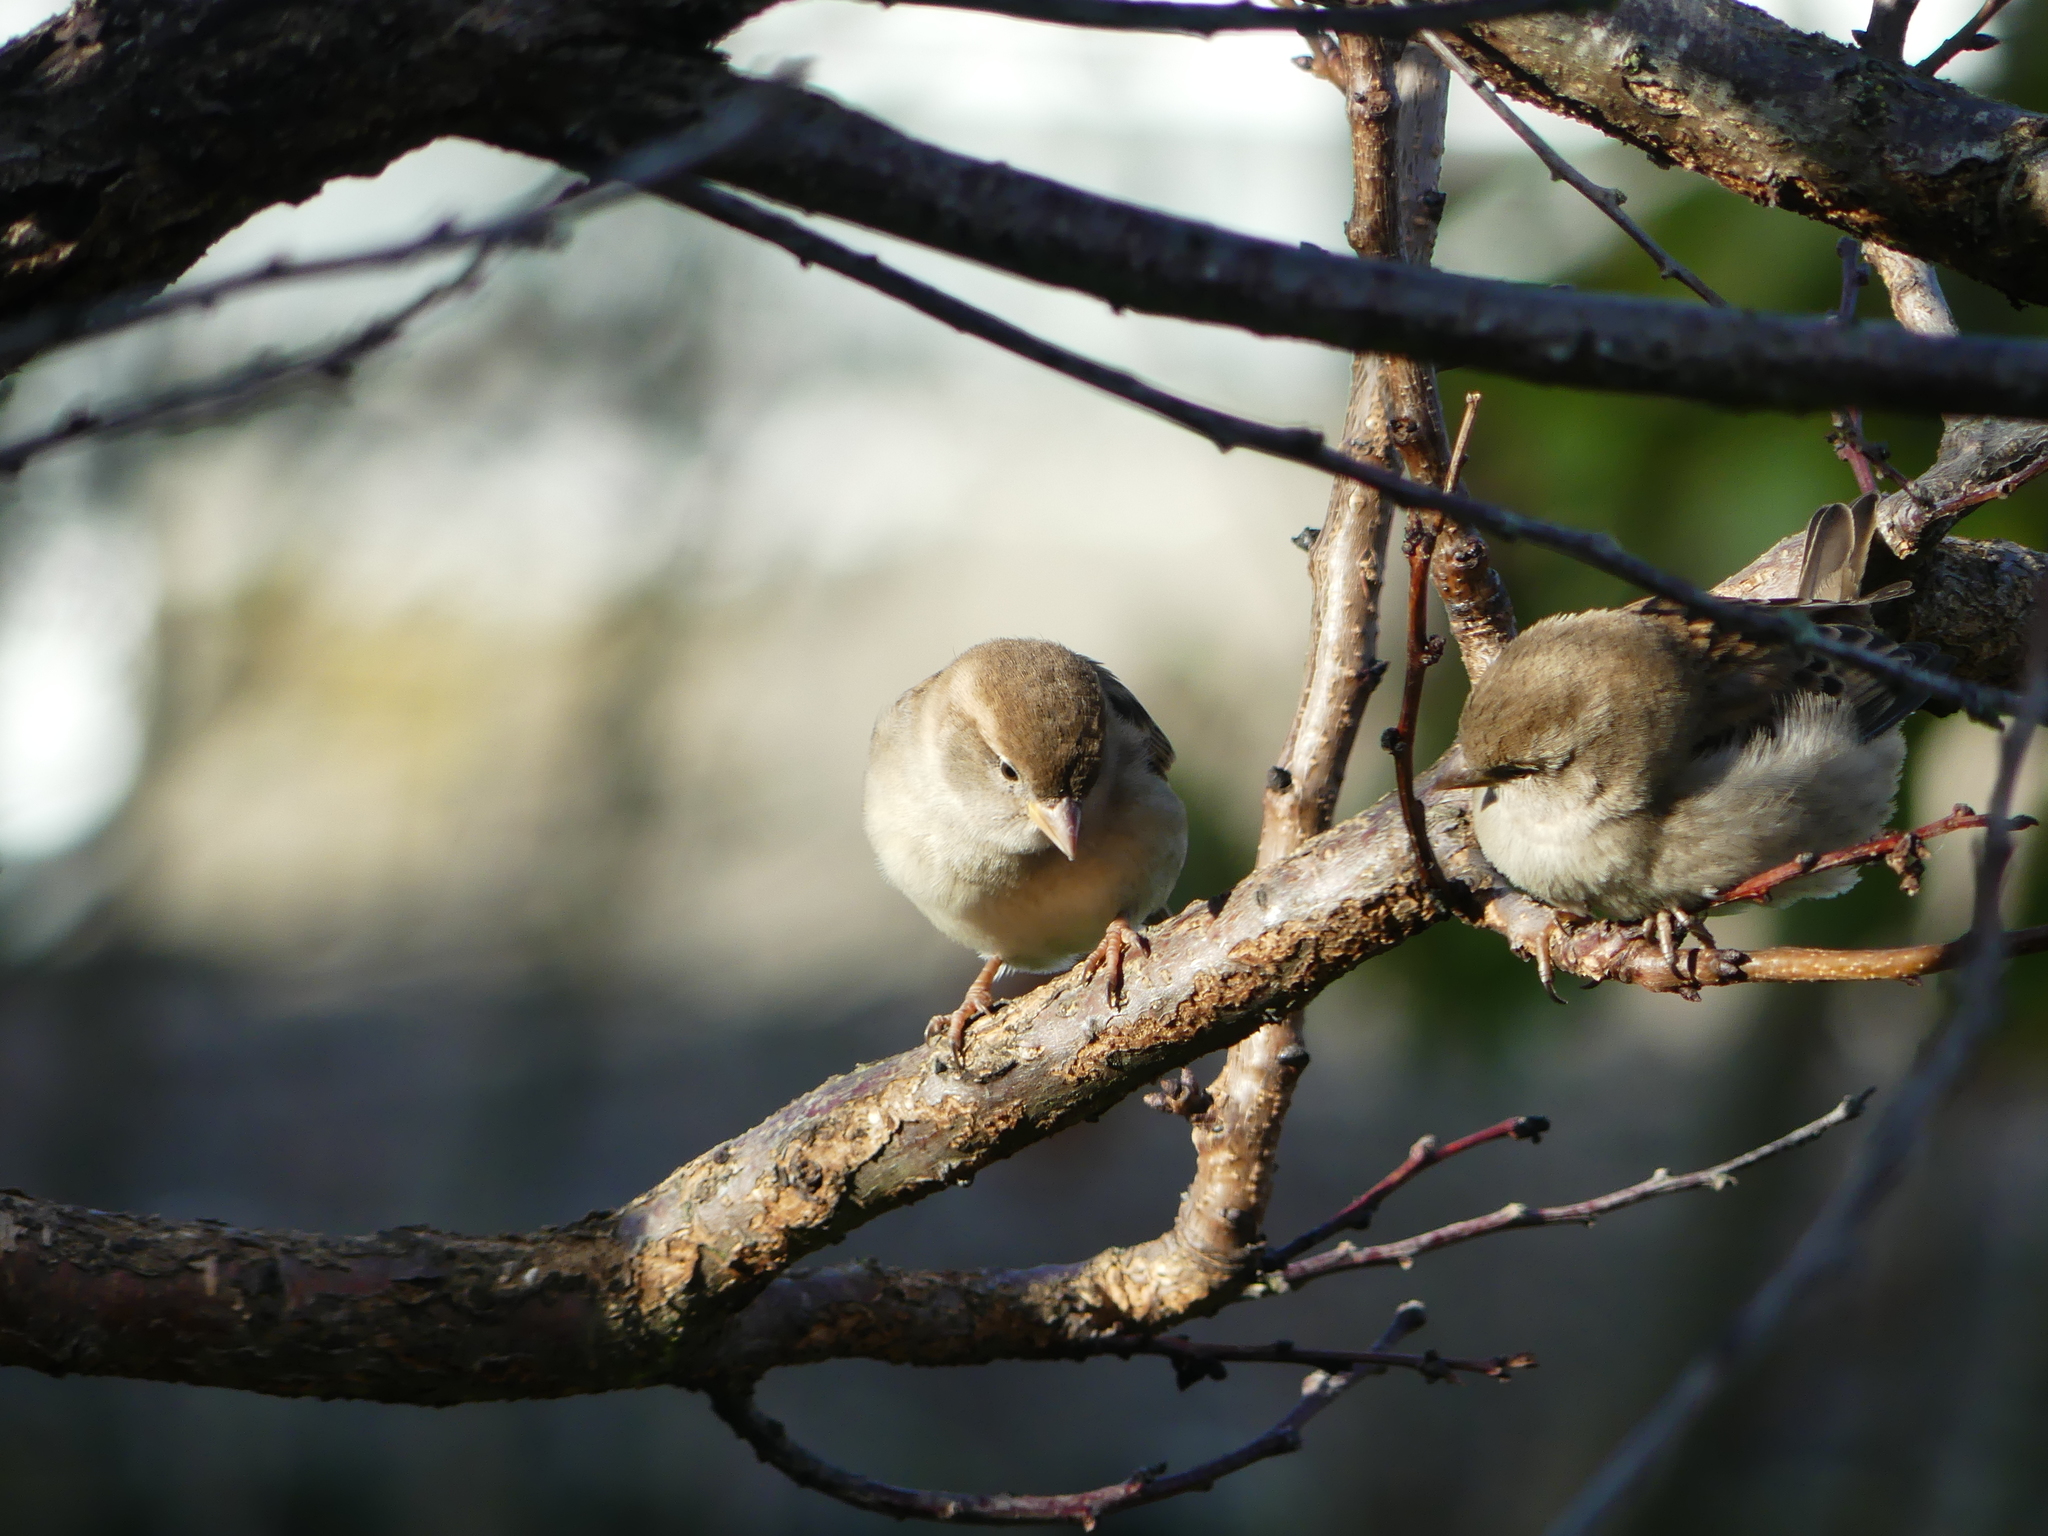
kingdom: Animalia
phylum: Chordata
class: Aves
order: Passeriformes
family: Passeridae
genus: Passer
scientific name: Passer domesticus
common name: House sparrow
